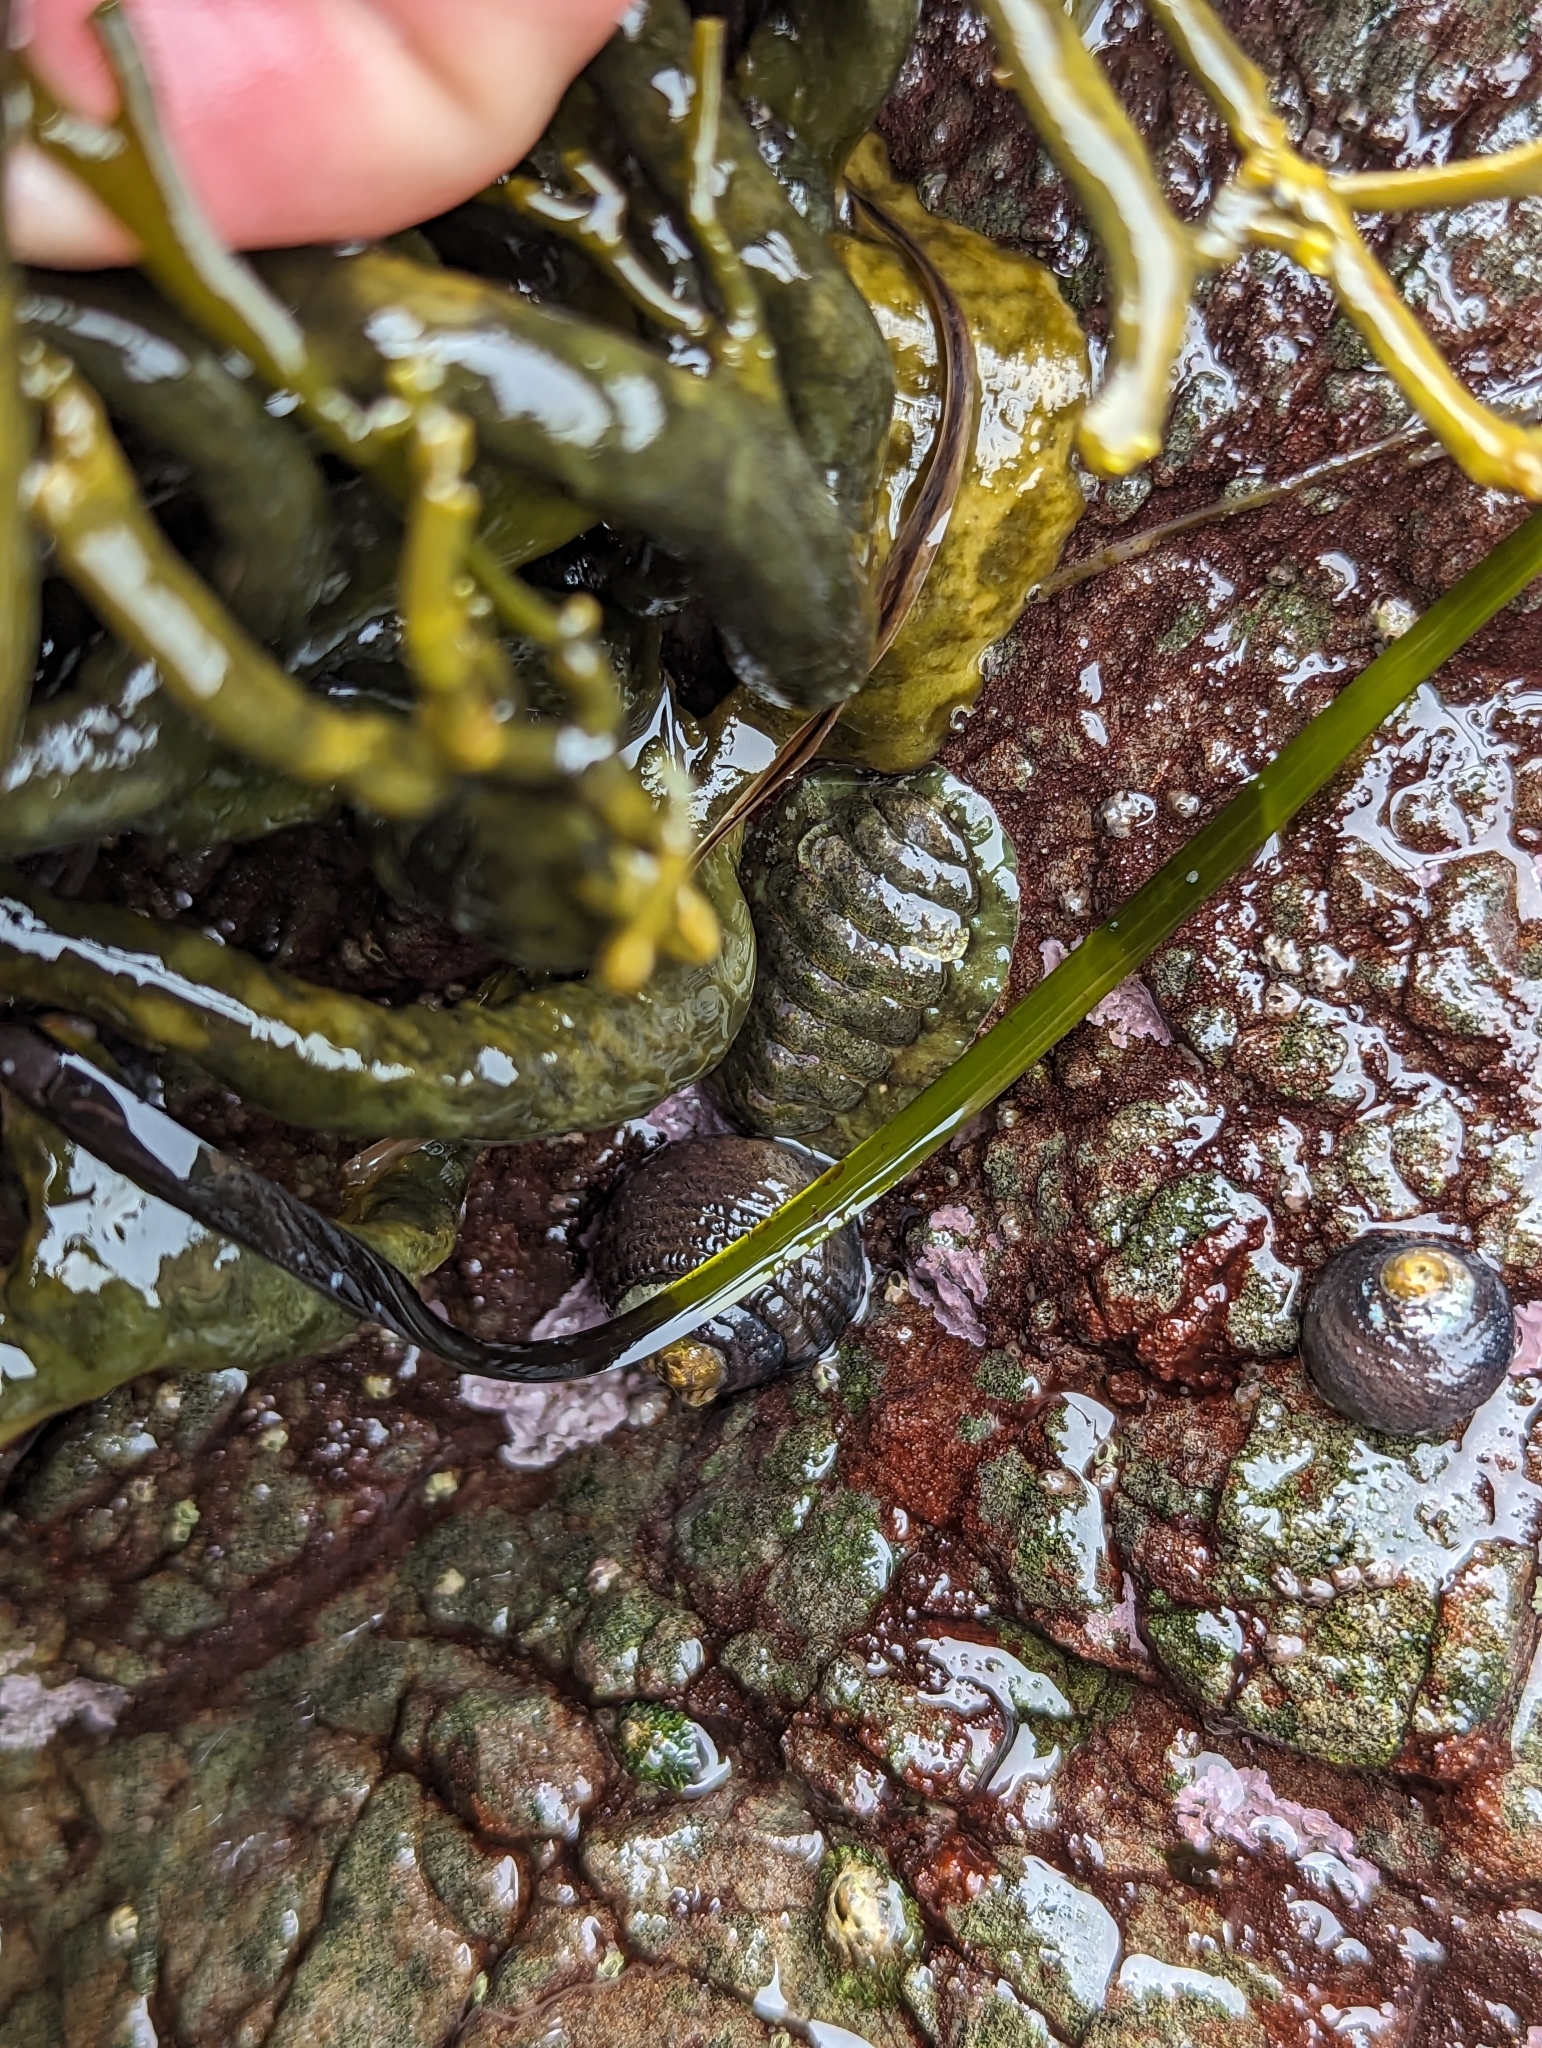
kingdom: Animalia
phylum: Mollusca
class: Polyplacophora
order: Chitonida
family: Tonicellidae
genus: Cyanoplax
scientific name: Cyanoplax hartwegii
